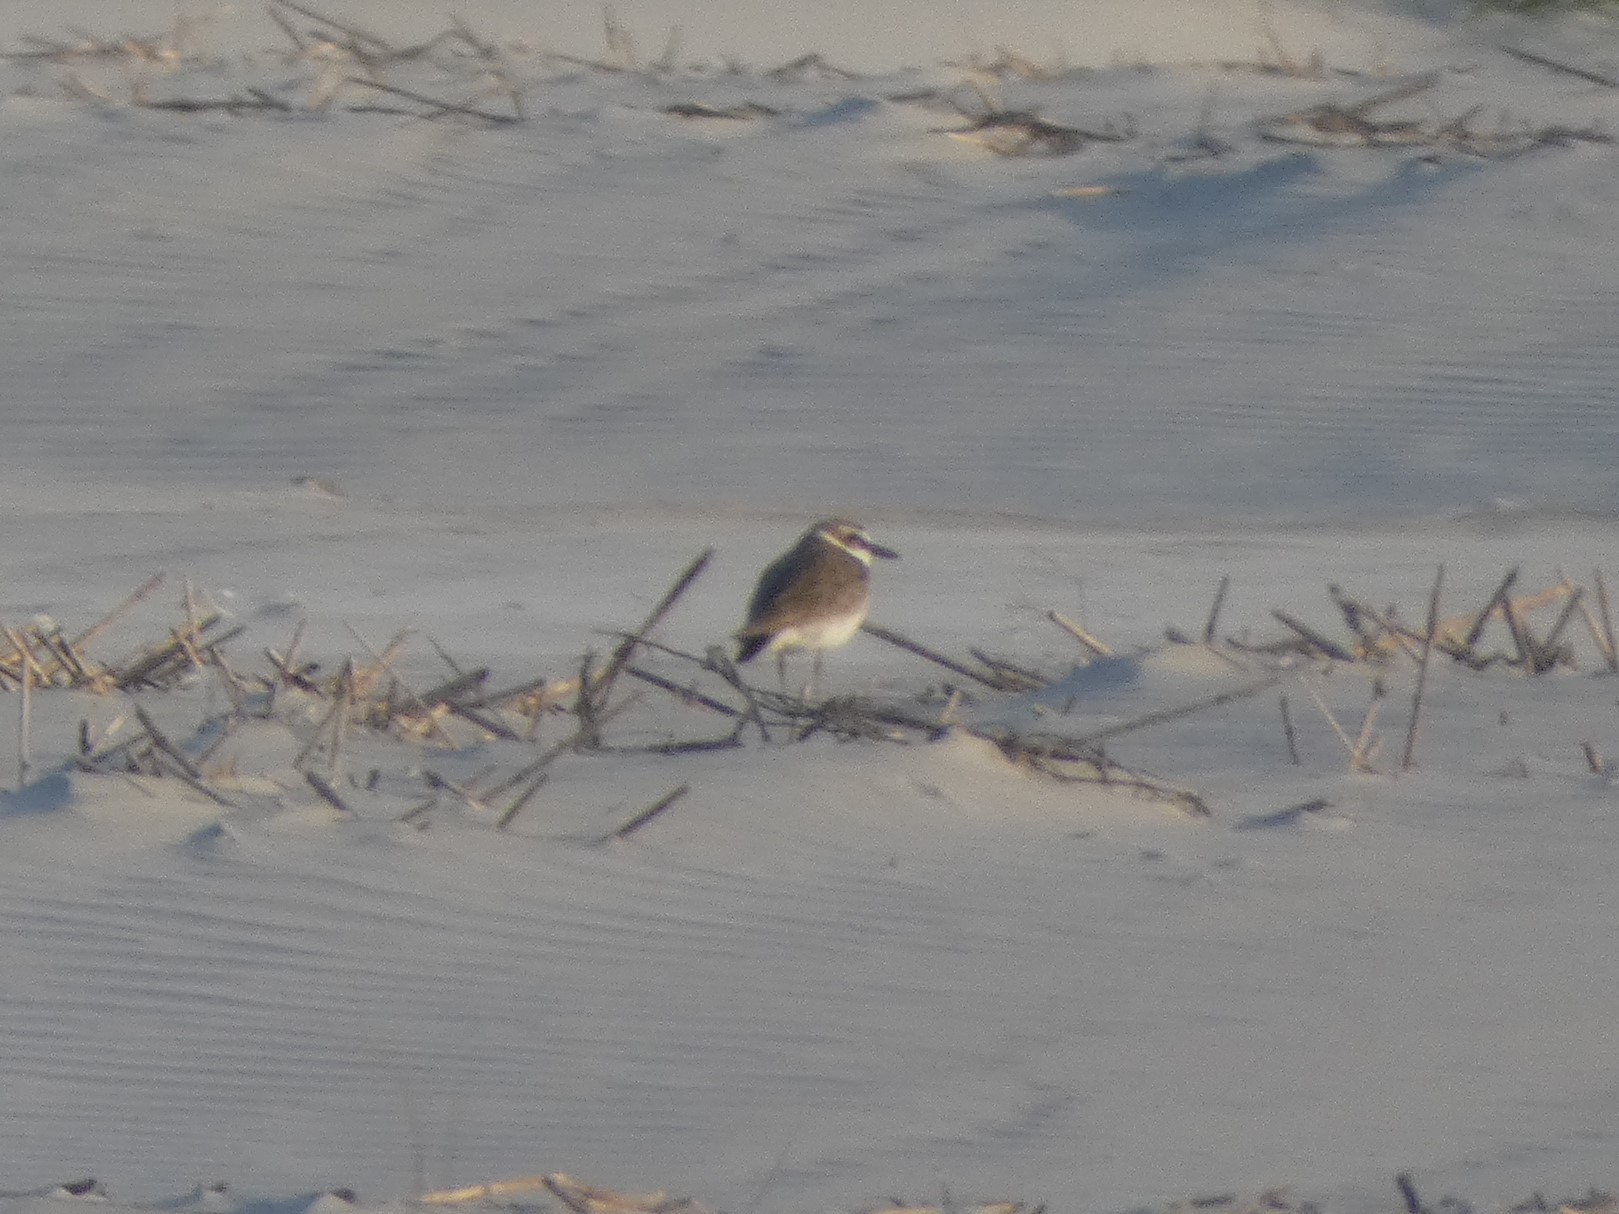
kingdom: Animalia
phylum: Chordata
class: Aves
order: Charadriiformes
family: Charadriidae
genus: Anarhynchus
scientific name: Anarhynchus
